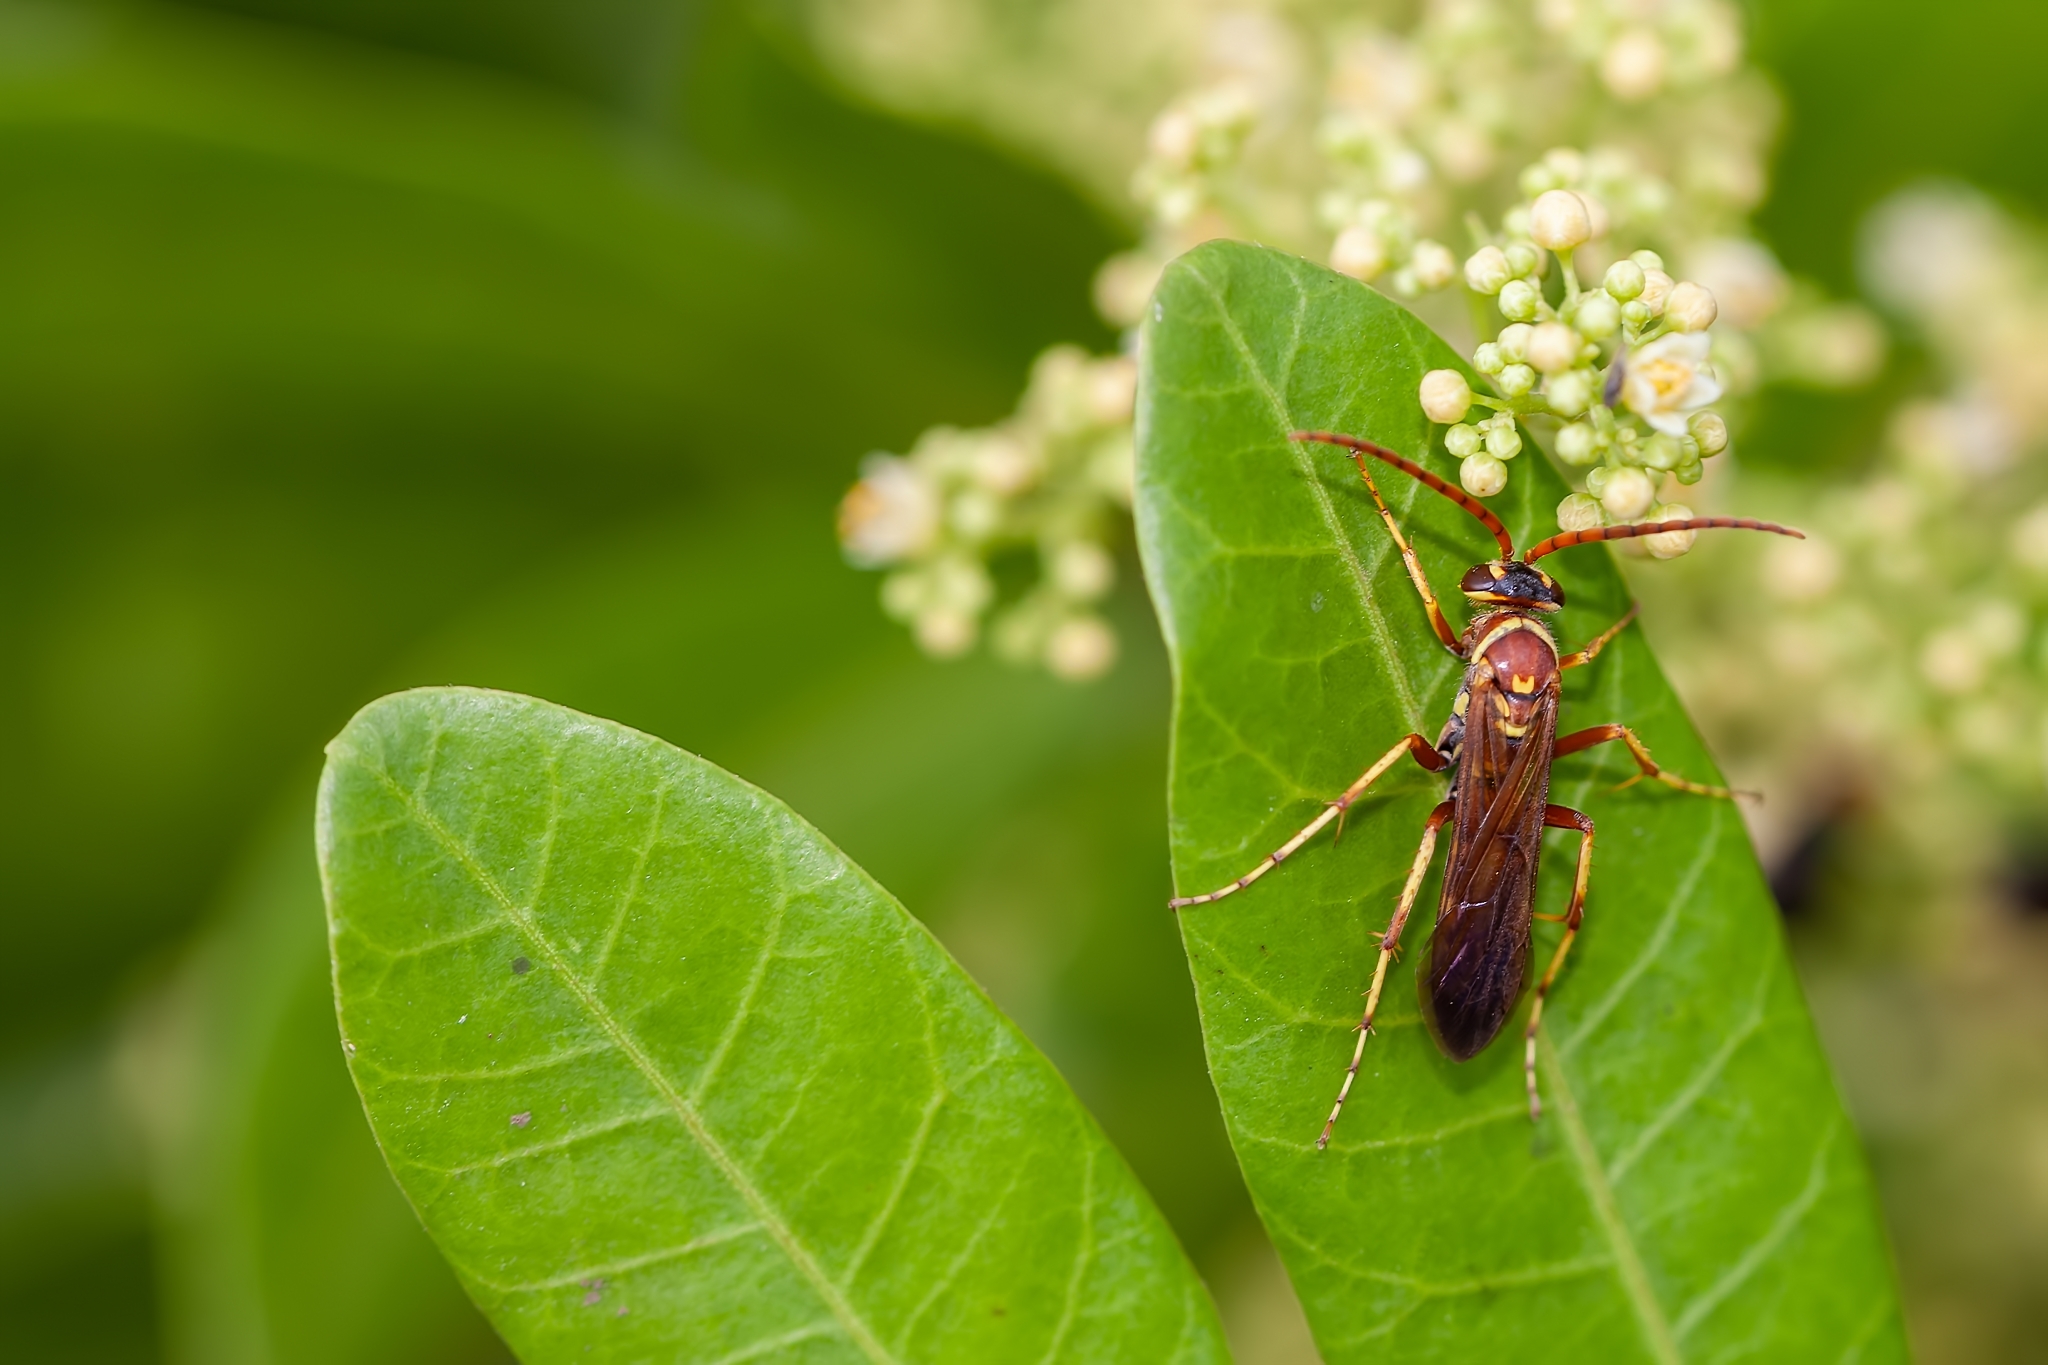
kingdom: Animalia
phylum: Arthropoda
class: Insecta
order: Hymenoptera
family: Pompilidae
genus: Poecilopompilus
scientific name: Poecilopompilus interruptus
